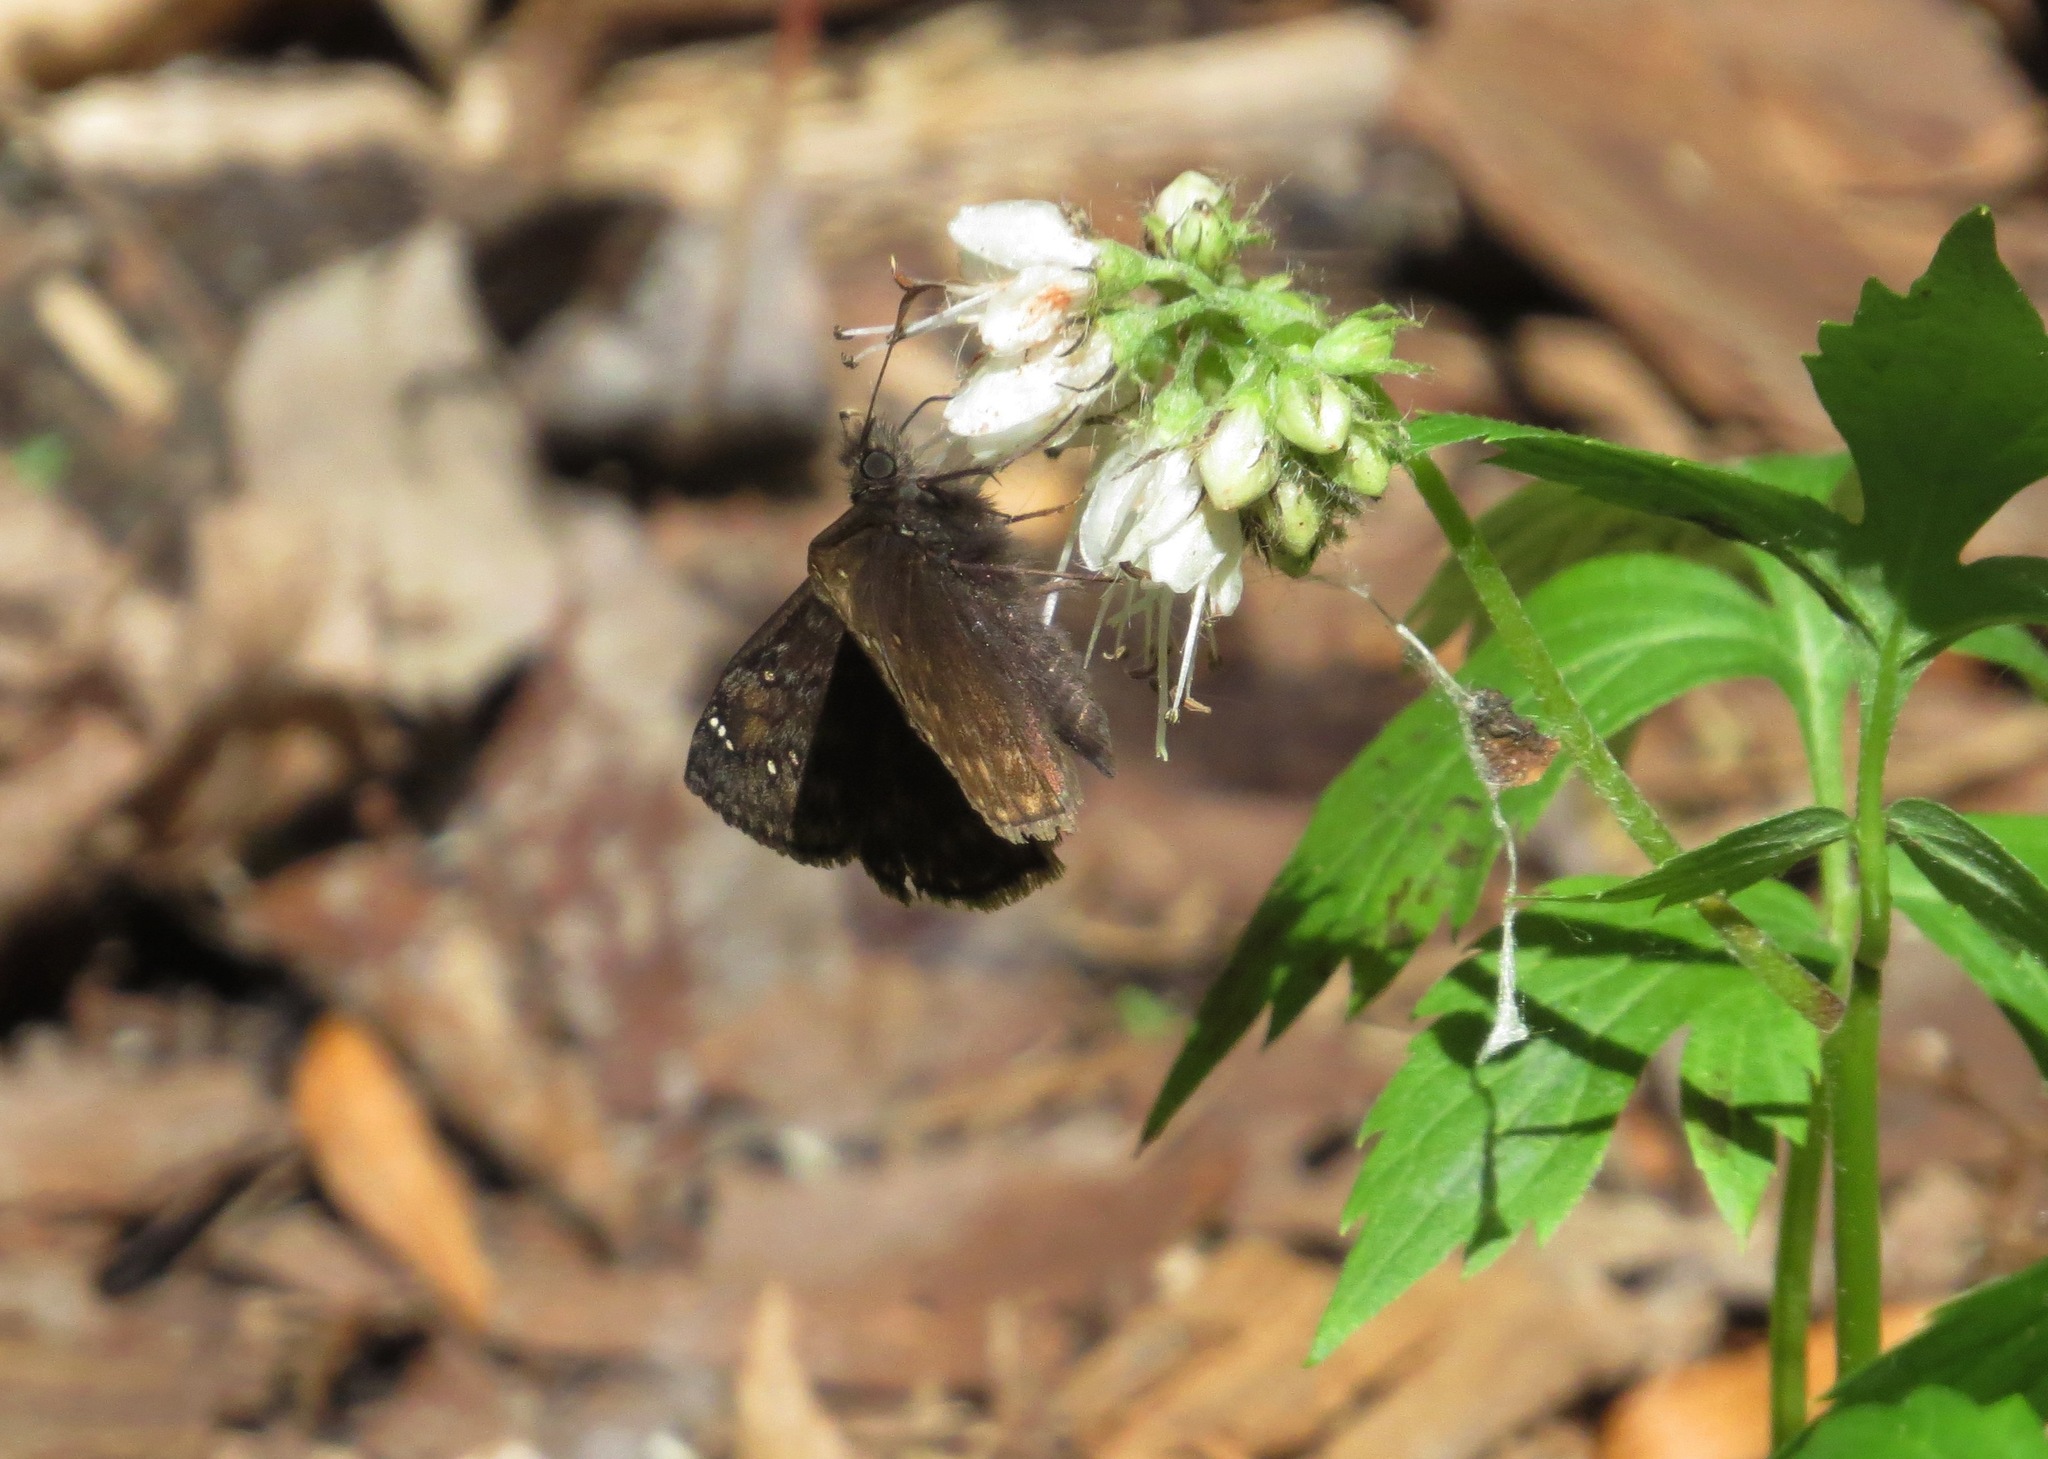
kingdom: Animalia
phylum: Arthropoda
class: Insecta
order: Lepidoptera
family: Hesperiidae
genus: Erynnis
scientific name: Erynnis juvenalis
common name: Juvenal's duskywing
